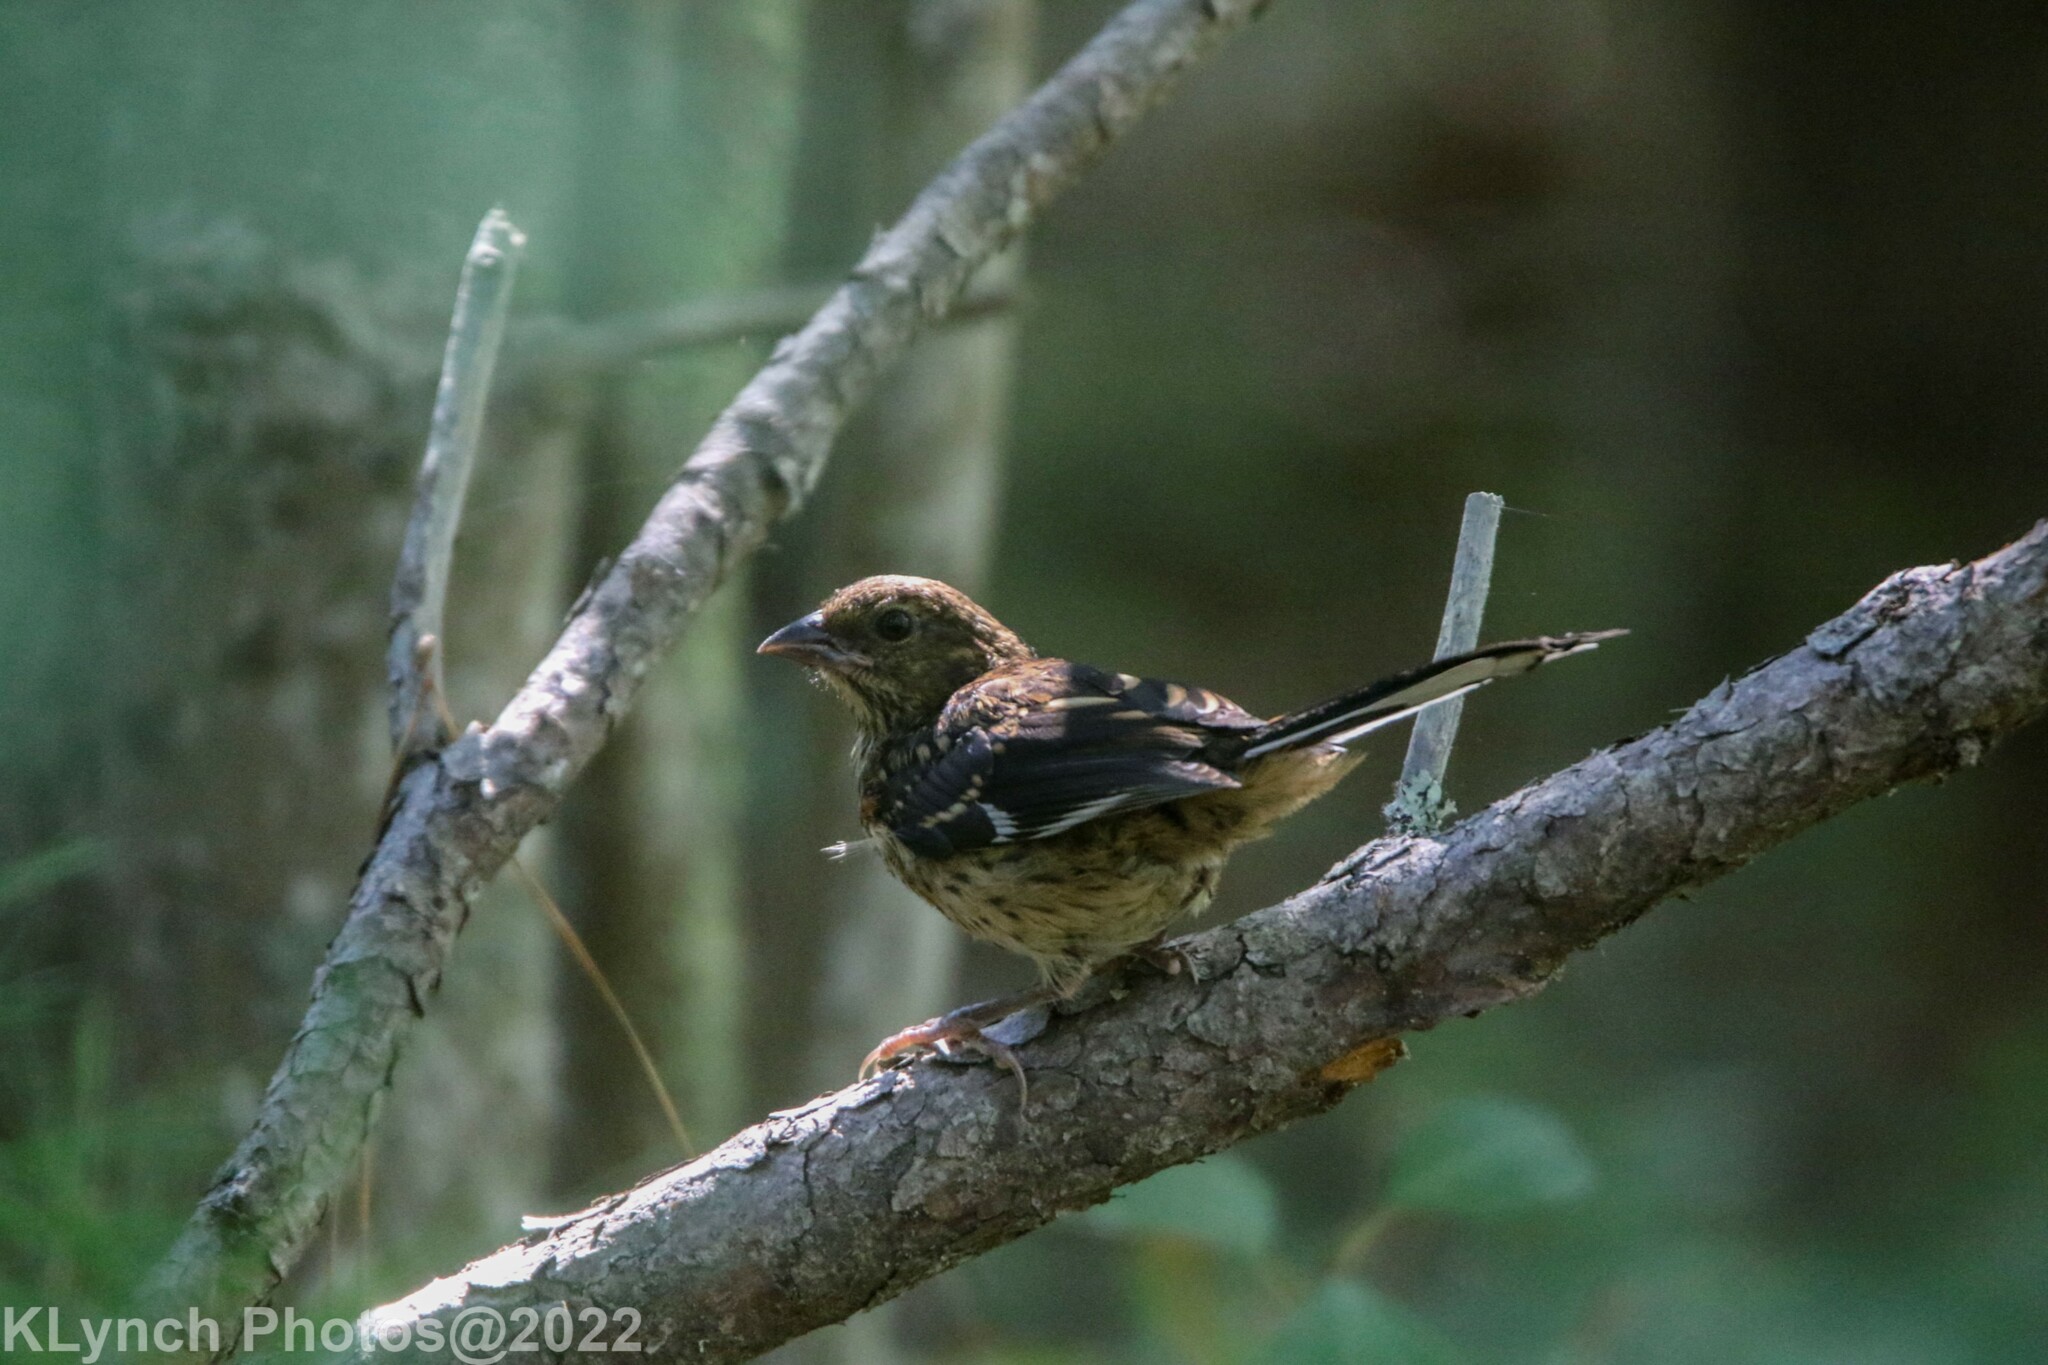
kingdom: Animalia
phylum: Chordata
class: Aves
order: Passeriformes
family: Passerellidae
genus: Pipilo
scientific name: Pipilo erythrophthalmus
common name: Eastern towhee
